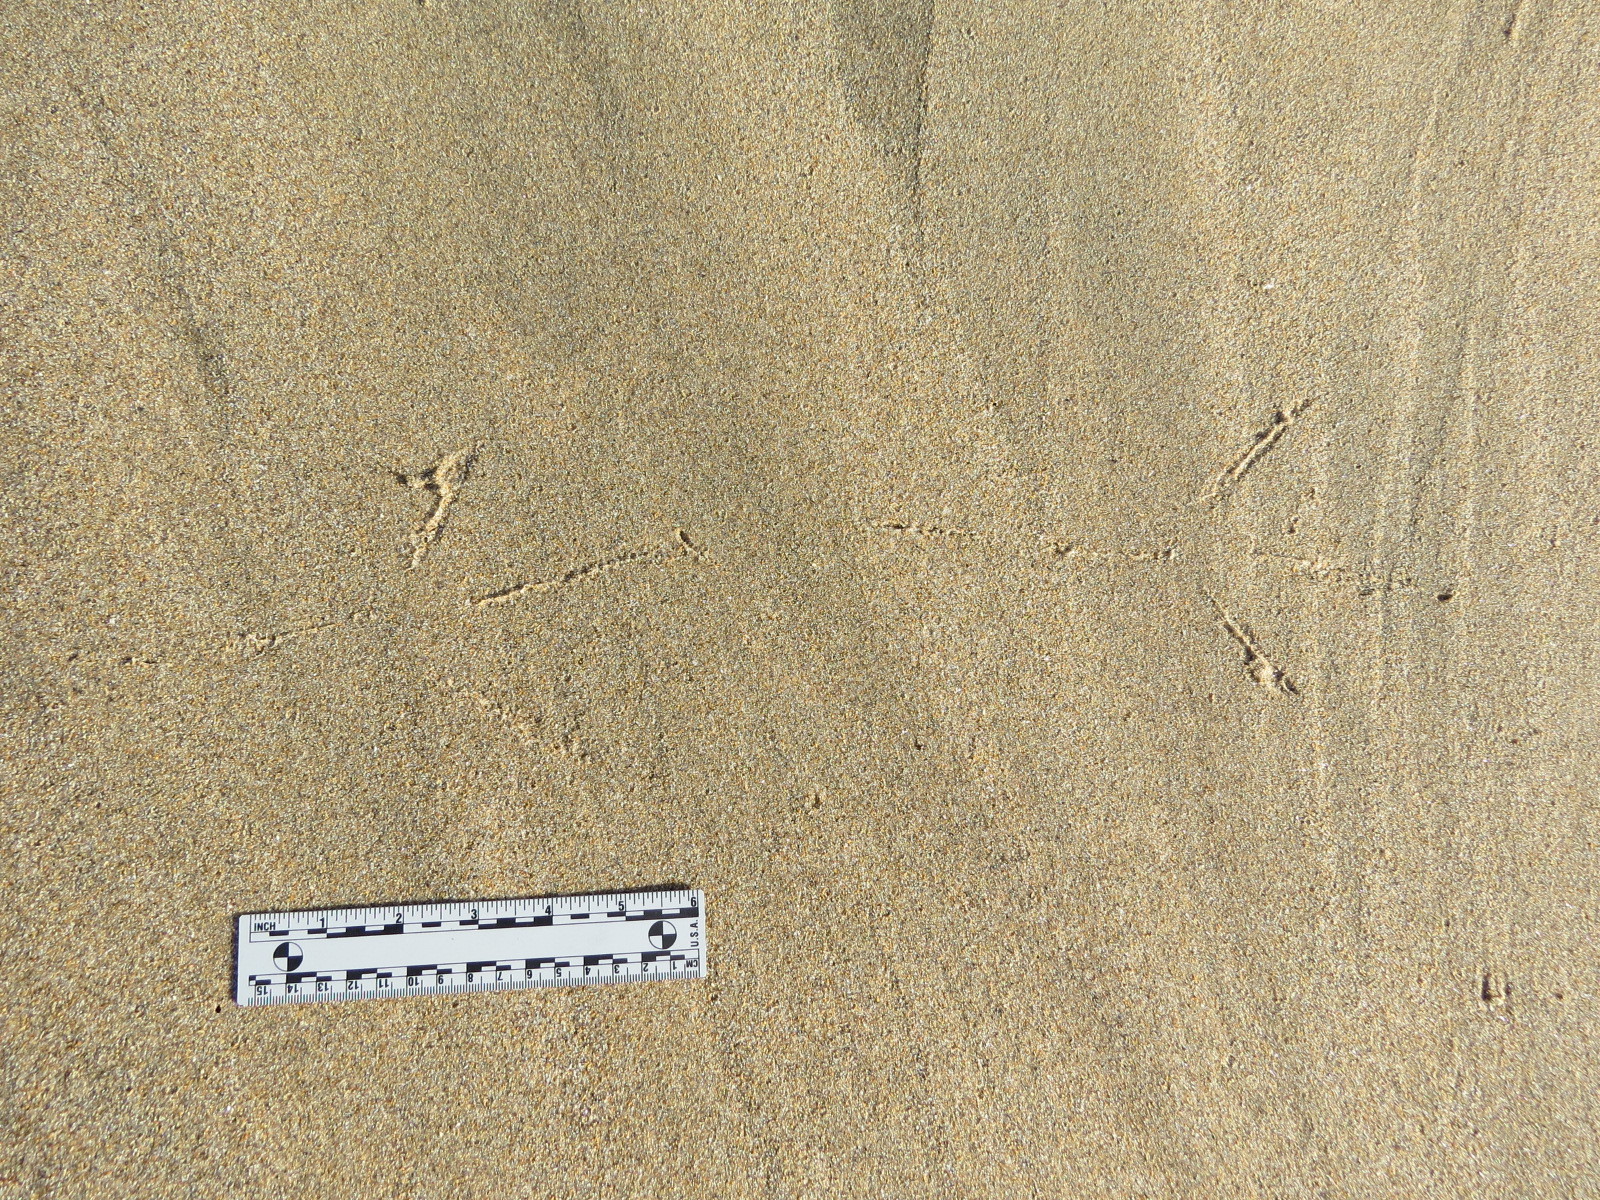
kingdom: Animalia
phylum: Chordata
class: Aves
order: Pelecaniformes
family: Ardeidae
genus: Ardea
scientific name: Ardea herodias
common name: Great blue heron
